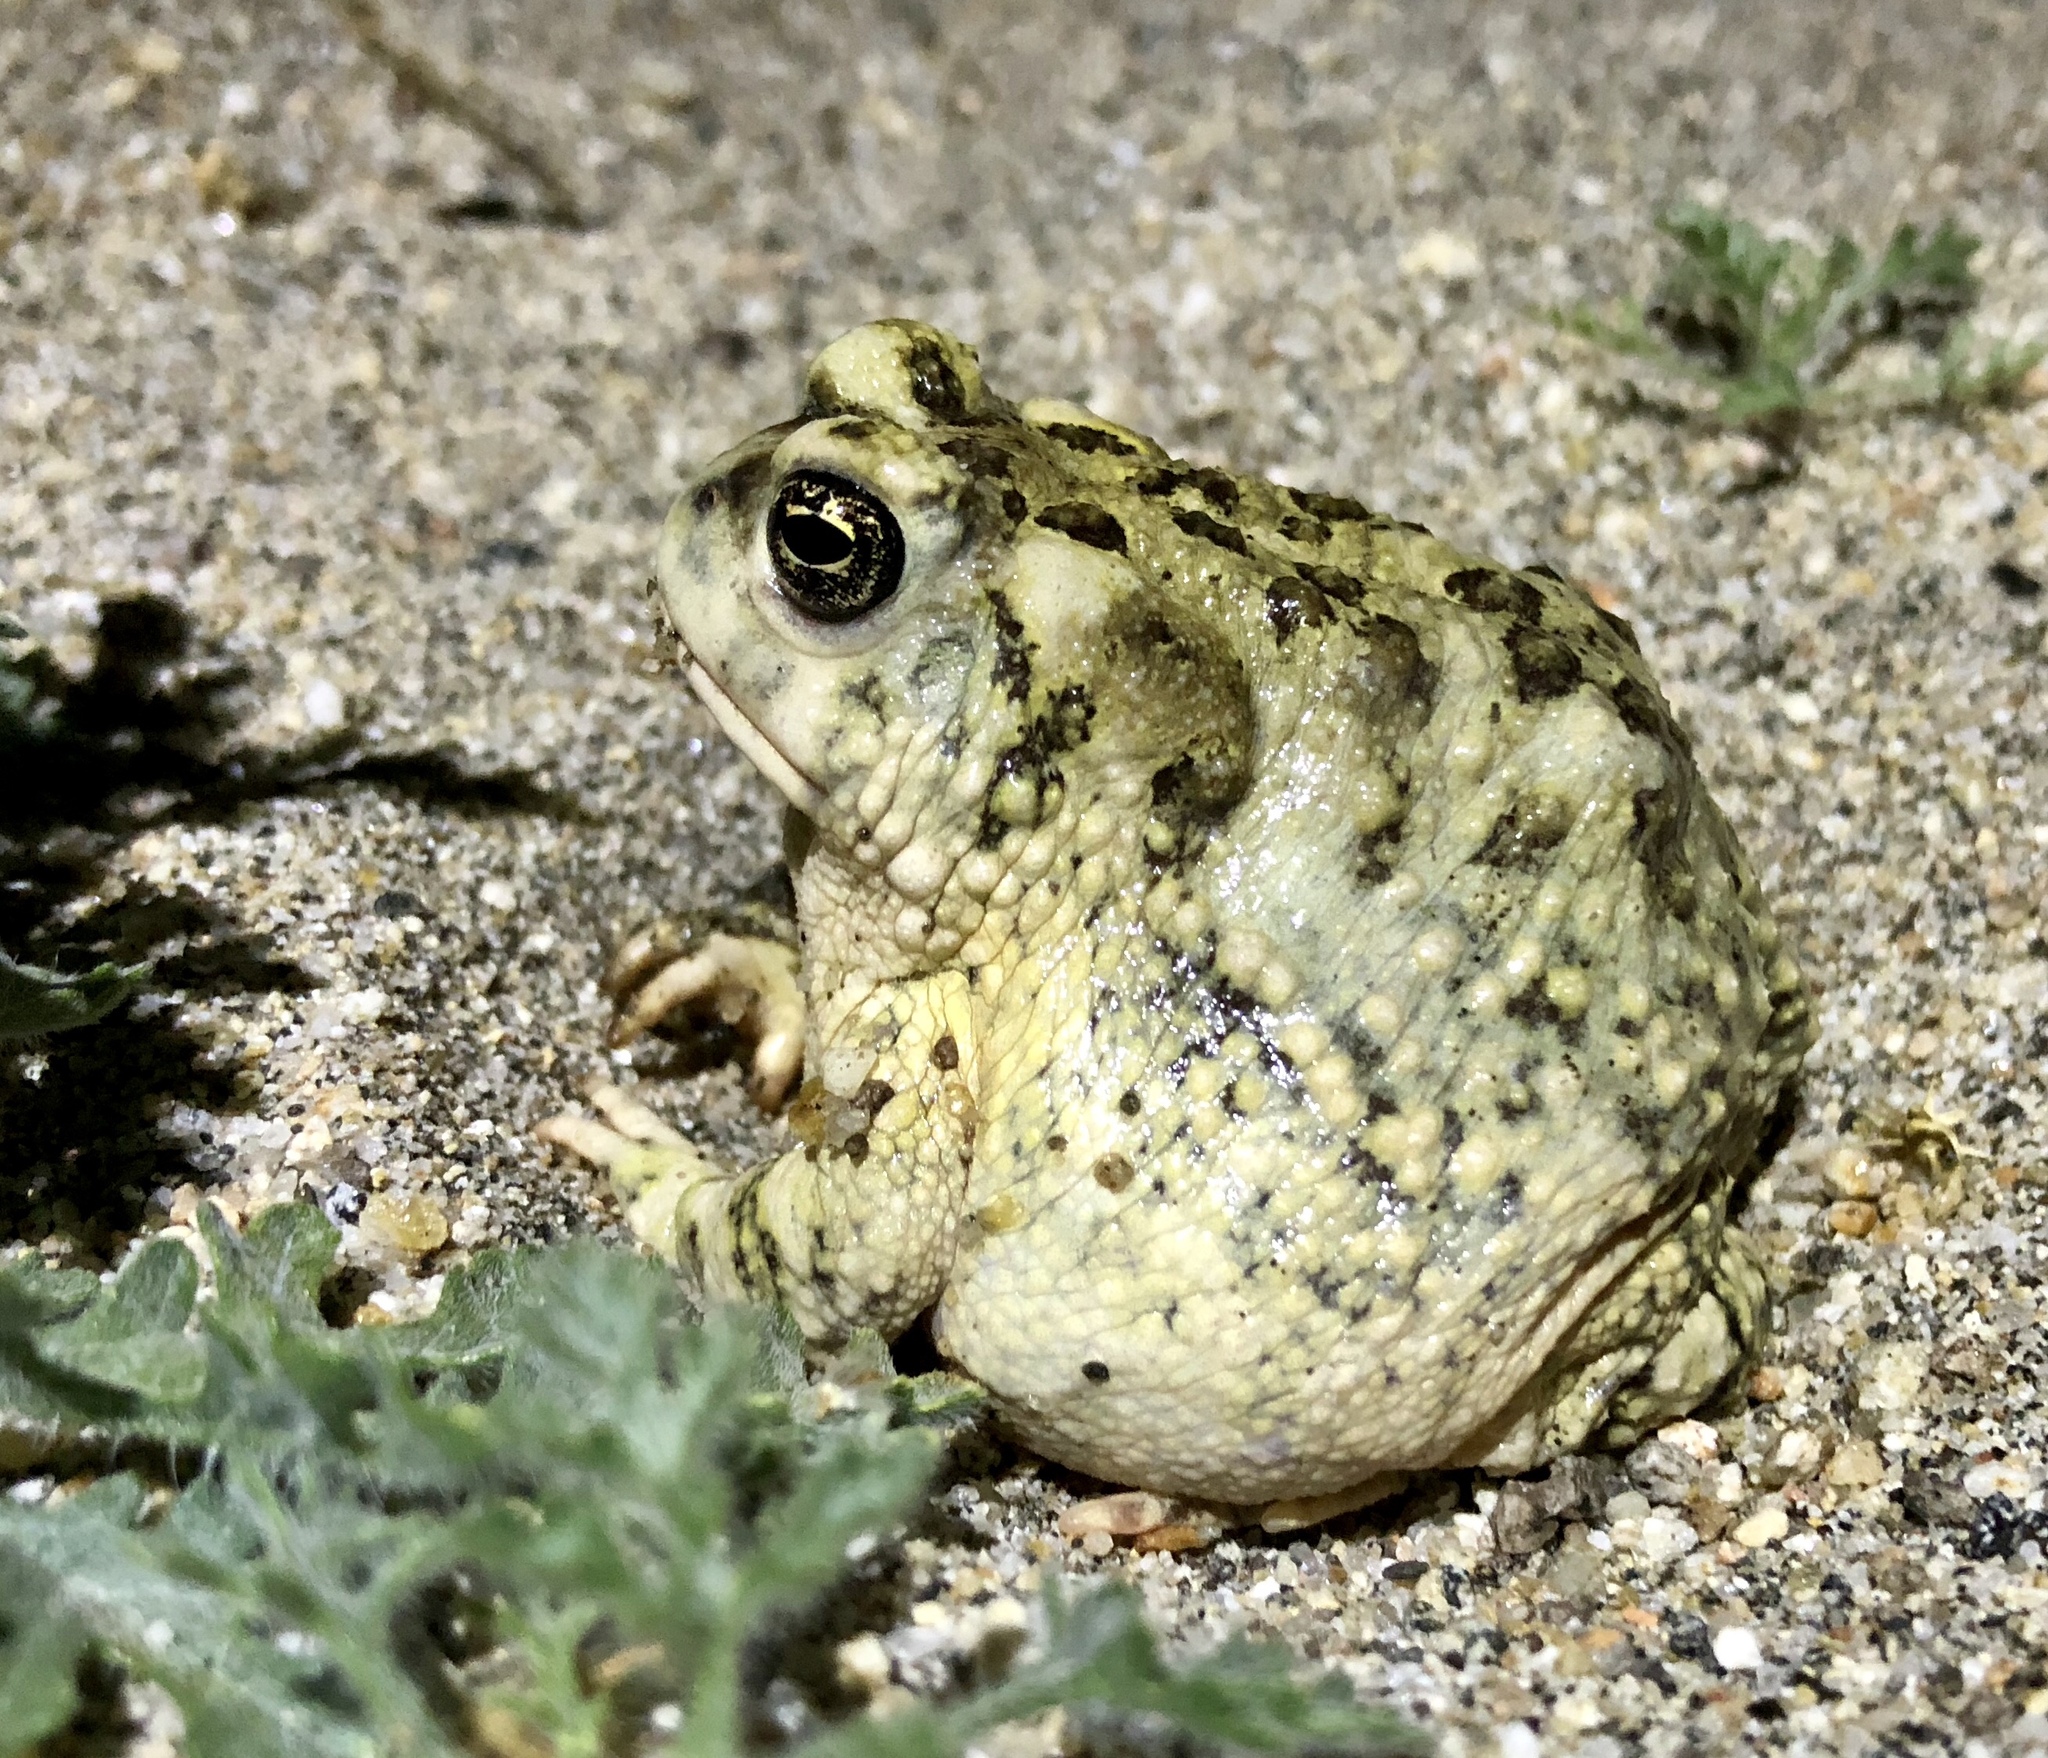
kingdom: Animalia
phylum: Chordata
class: Amphibia
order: Anura
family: Bufonidae
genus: Anaxyrus
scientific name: Anaxyrus californicus
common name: Arroyo toad
